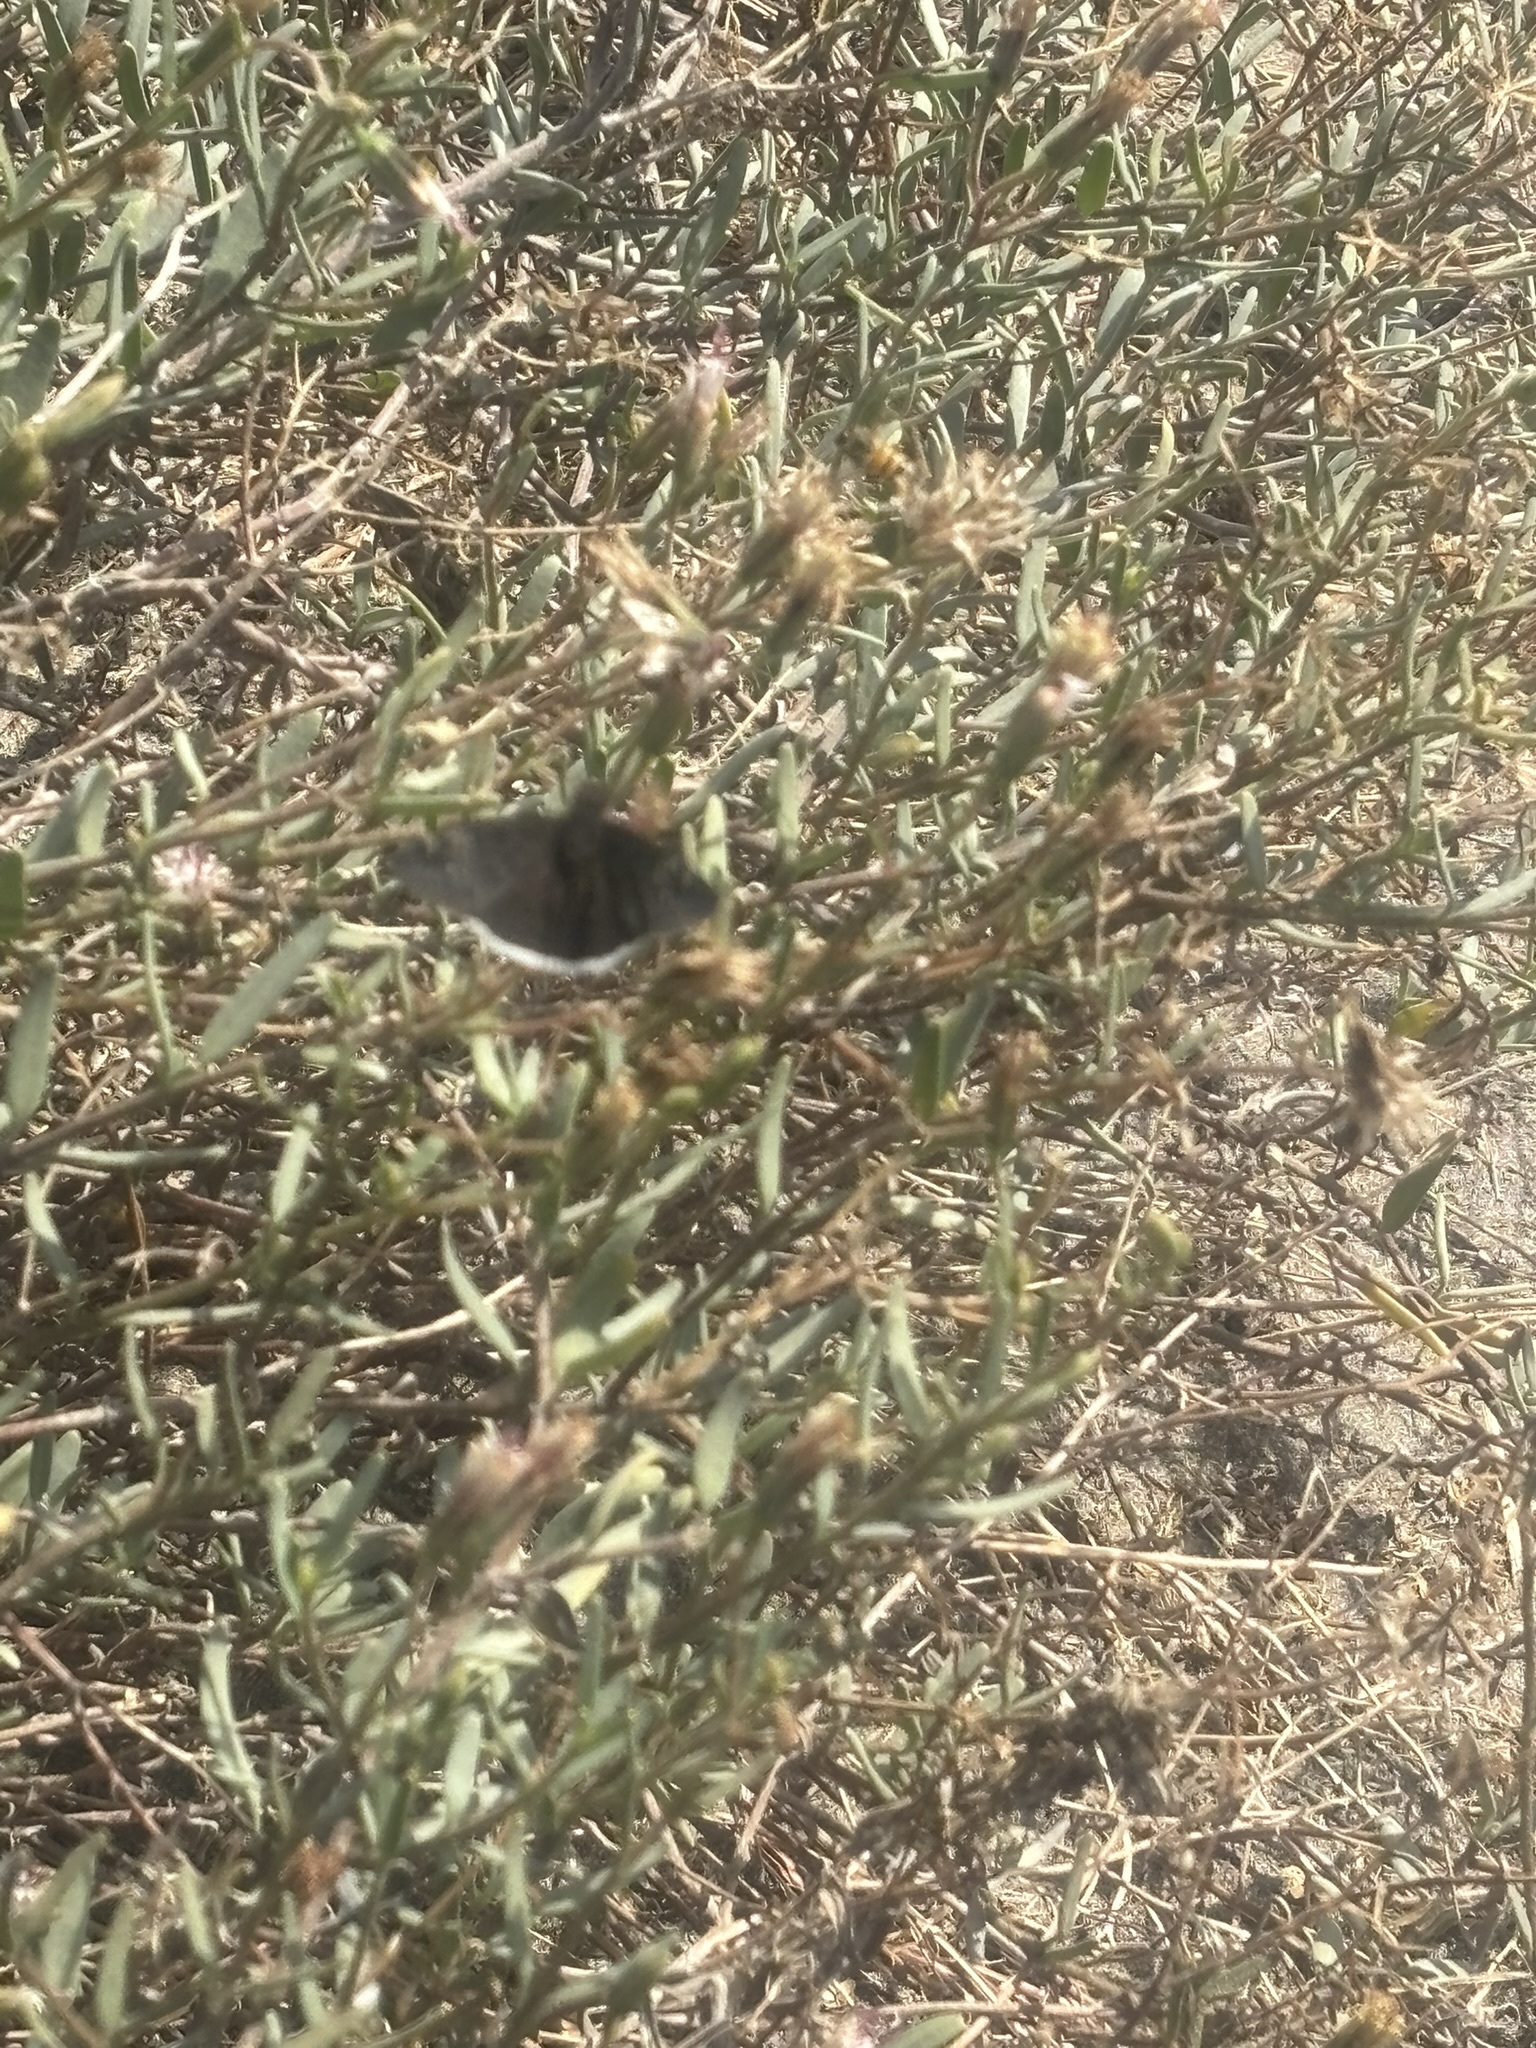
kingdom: Animalia
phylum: Arthropoda
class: Insecta
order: Lepidoptera
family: Hesperiidae
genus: Erynnis
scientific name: Erynnis funeralis
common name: Funereal duskywing
